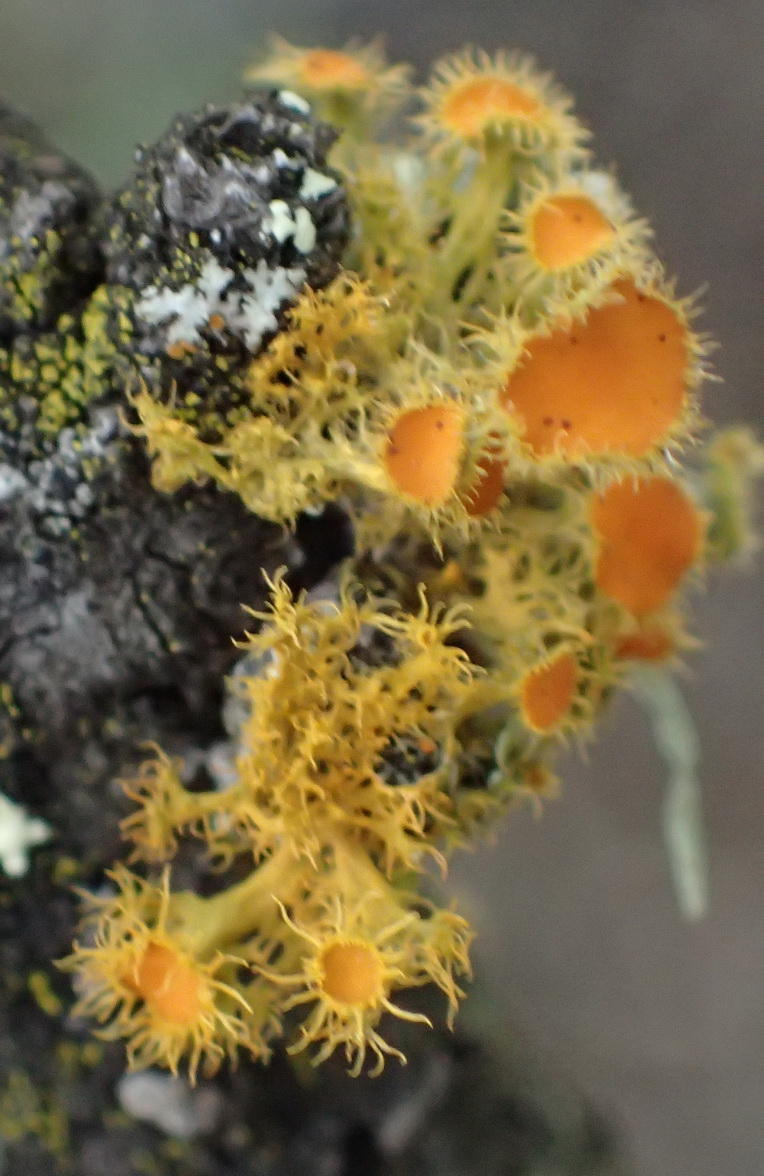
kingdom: Fungi
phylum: Ascomycota
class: Lecanoromycetes
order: Teloschistales
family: Teloschistaceae
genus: Niorma
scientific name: Niorma chrysophthalma
